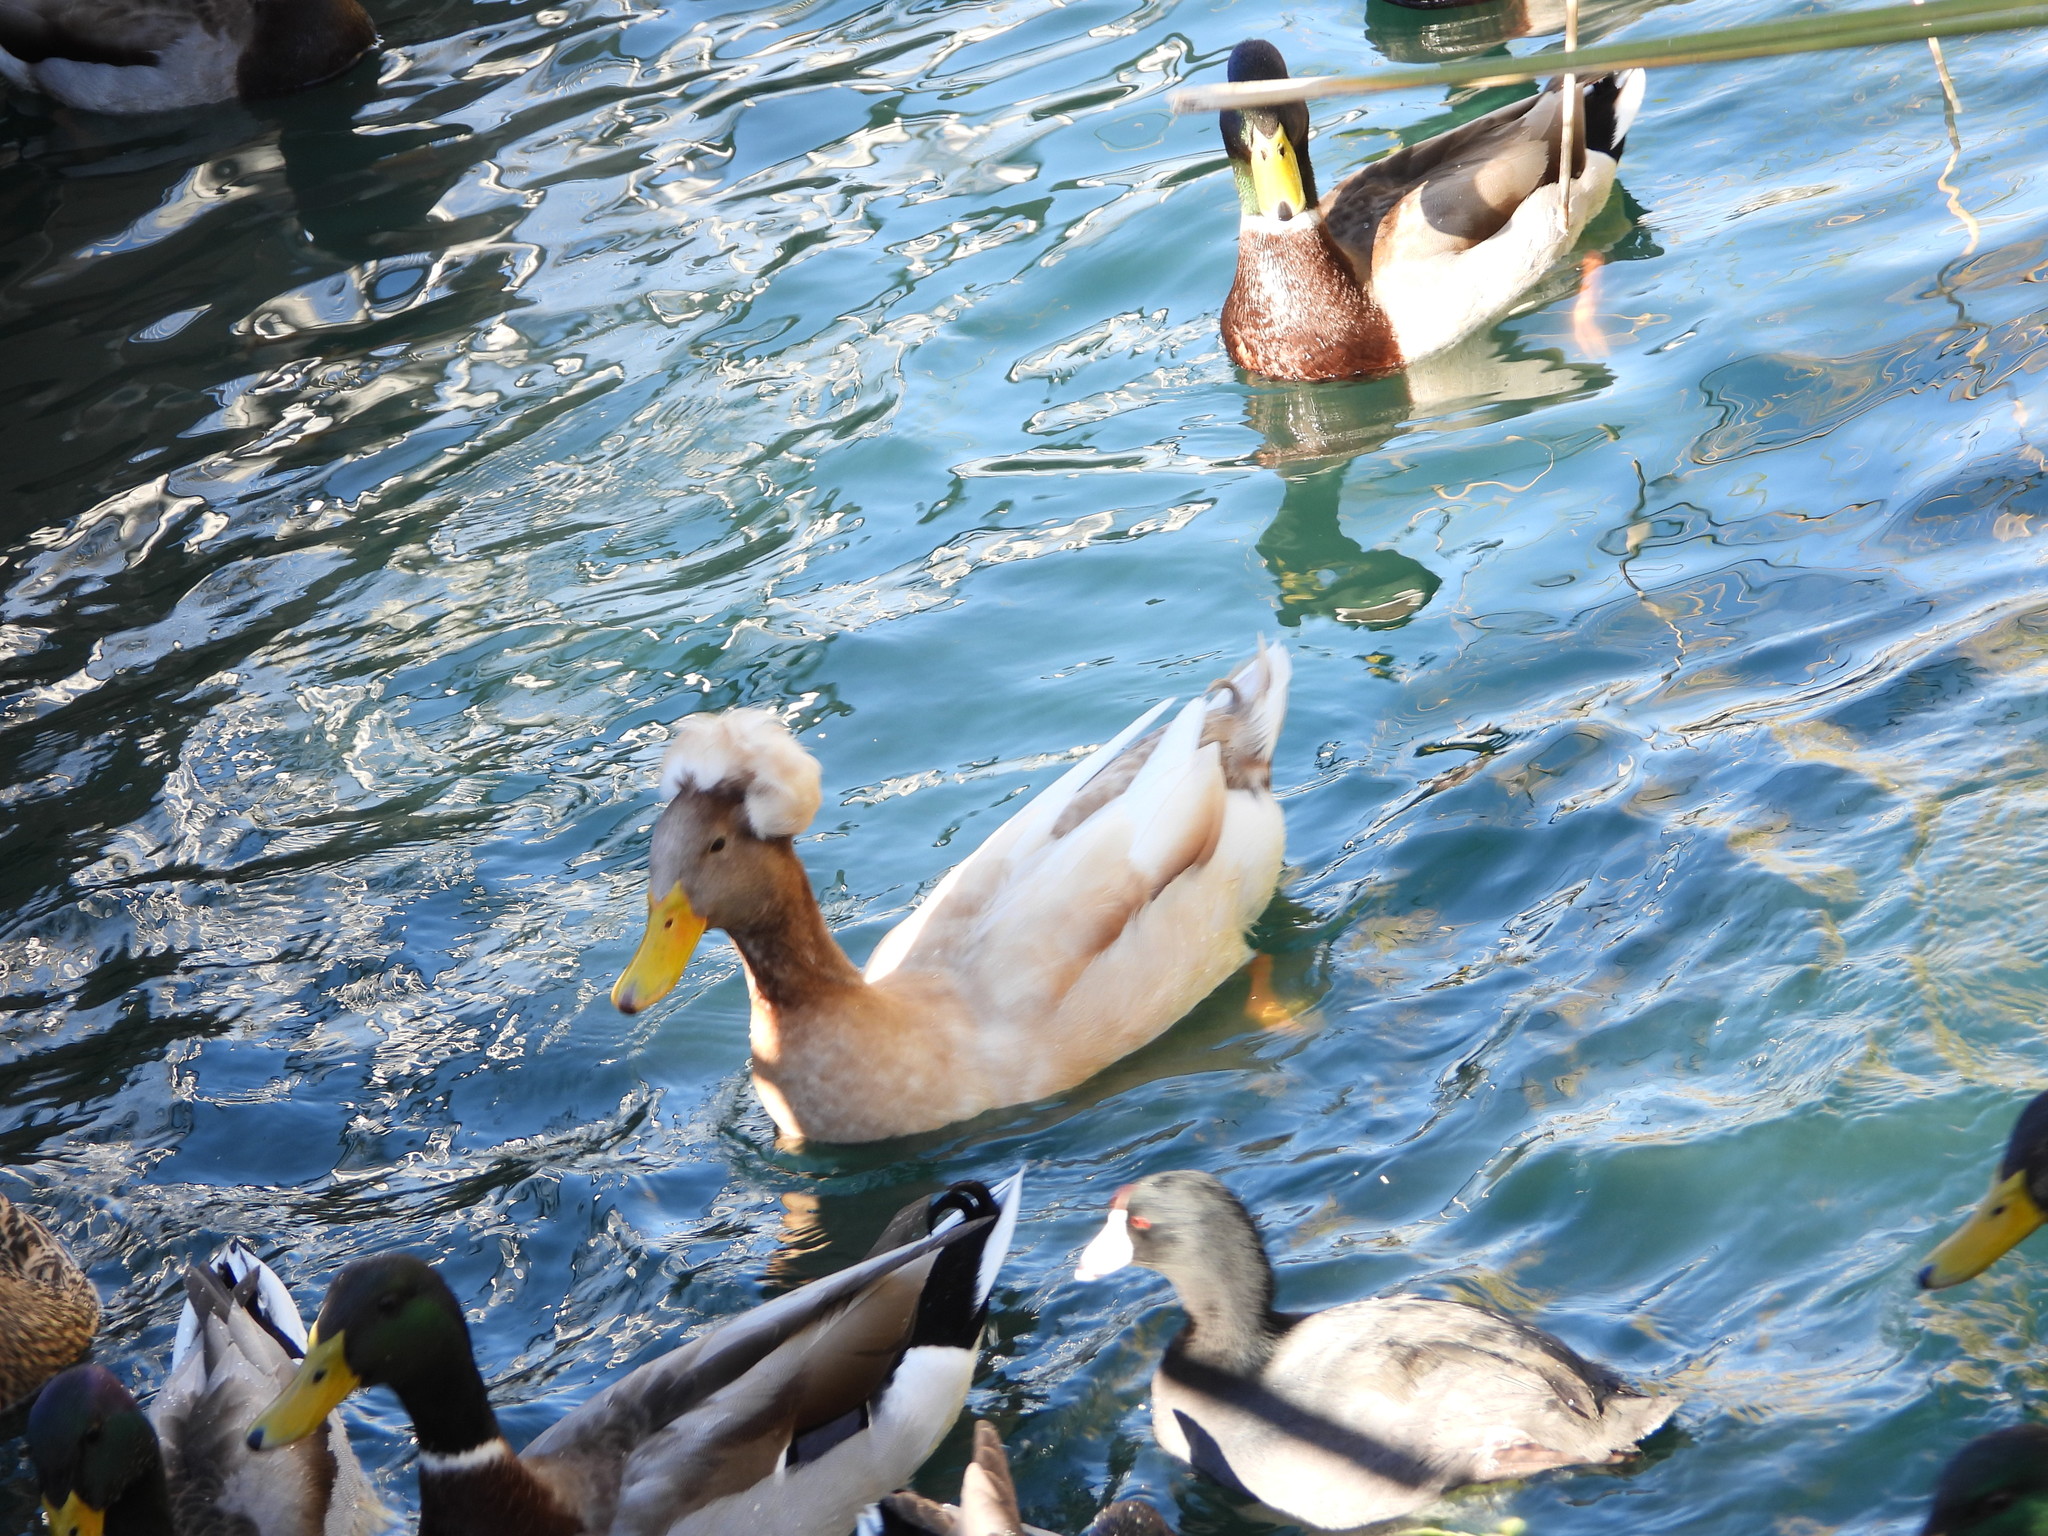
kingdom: Animalia
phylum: Chordata
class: Aves
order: Anseriformes
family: Anatidae
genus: Anas
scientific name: Anas platyrhynchos
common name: Mallard
